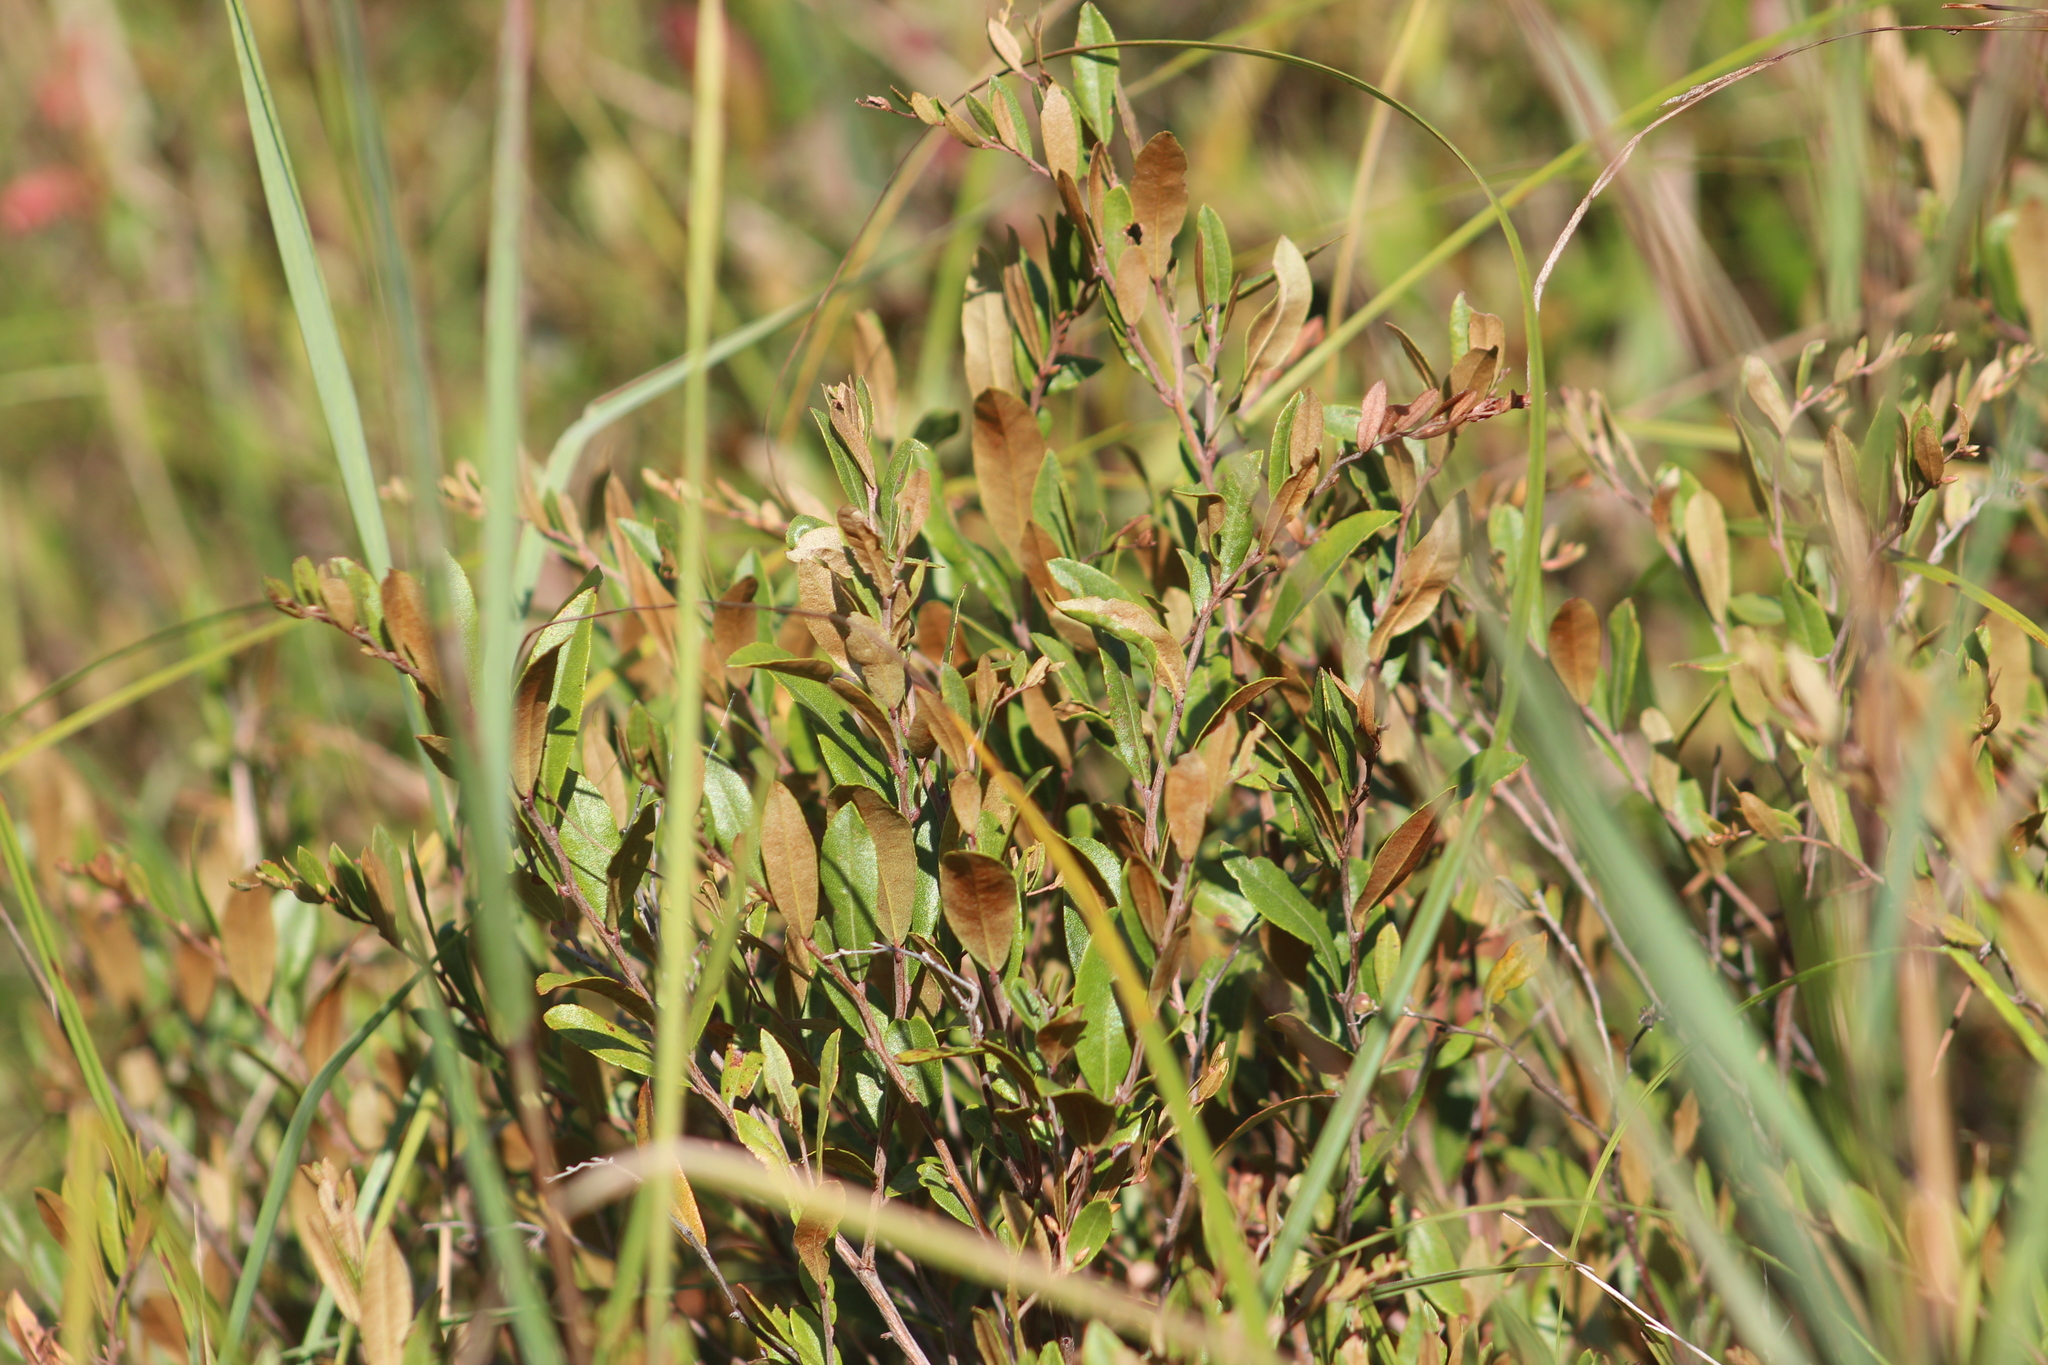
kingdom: Plantae
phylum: Tracheophyta
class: Magnoliopsida
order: Ericales
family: Ericaceae
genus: Chamaedaphne
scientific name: Chamaedaphne calyculata
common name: Leatherleaf
